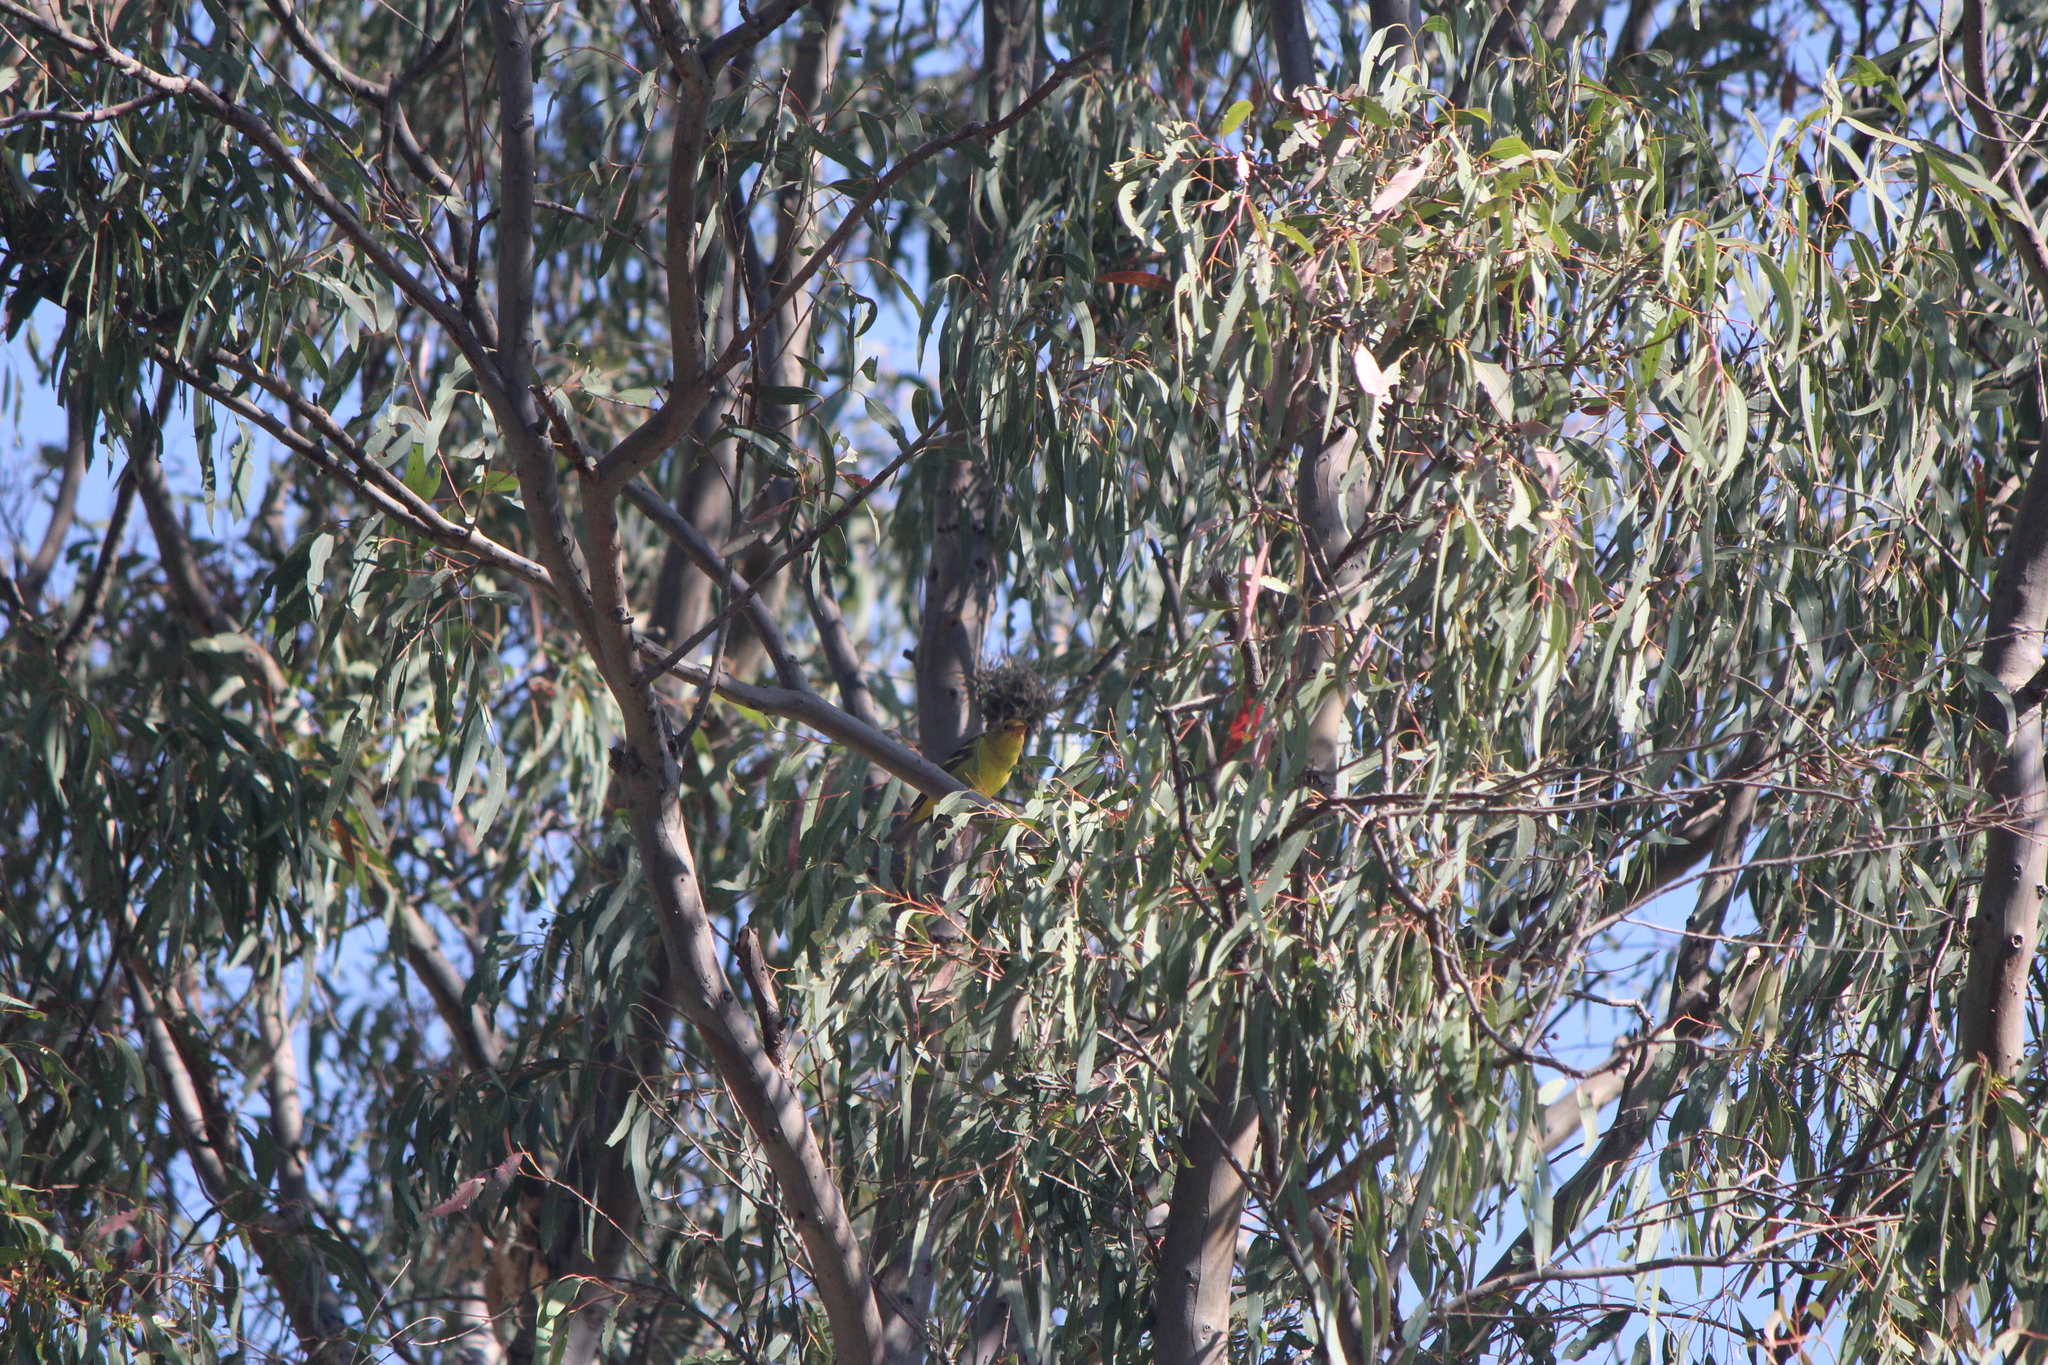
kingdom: Animalia
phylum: Chordata
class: Aves
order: Passeriformes
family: Cardinalidae
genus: Piranga
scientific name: Piranga ludoviciana
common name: Western tanager
